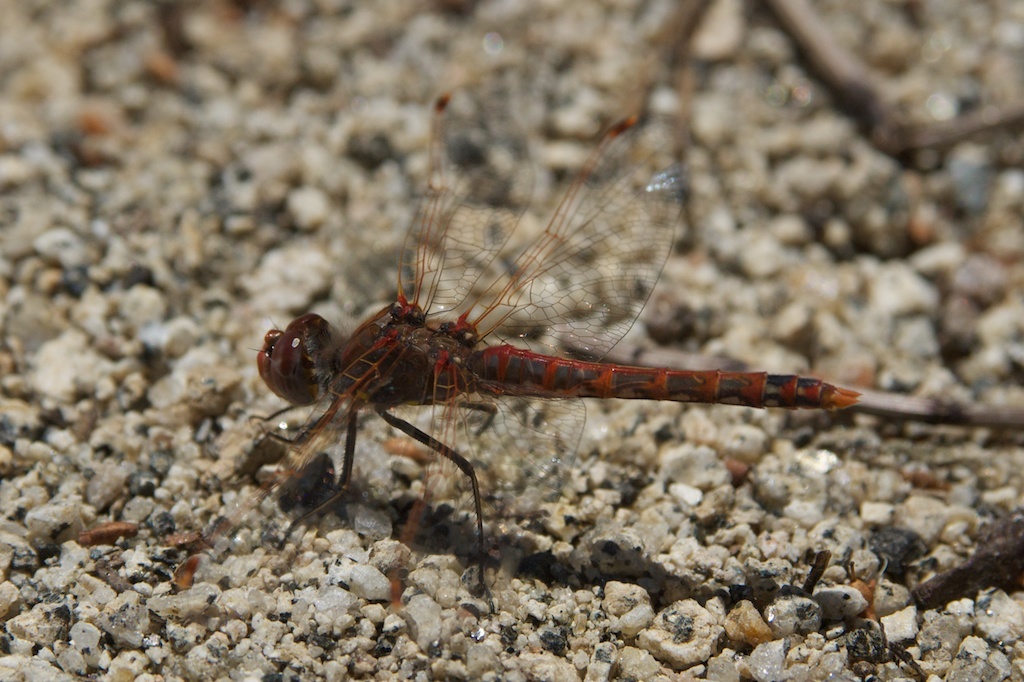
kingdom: Animalia
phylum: Arthropoda
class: Insecta
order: Odonata
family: Libellulidae
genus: Sympetrum
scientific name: Sympetrum corruptum
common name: Variegated meadowhawk
